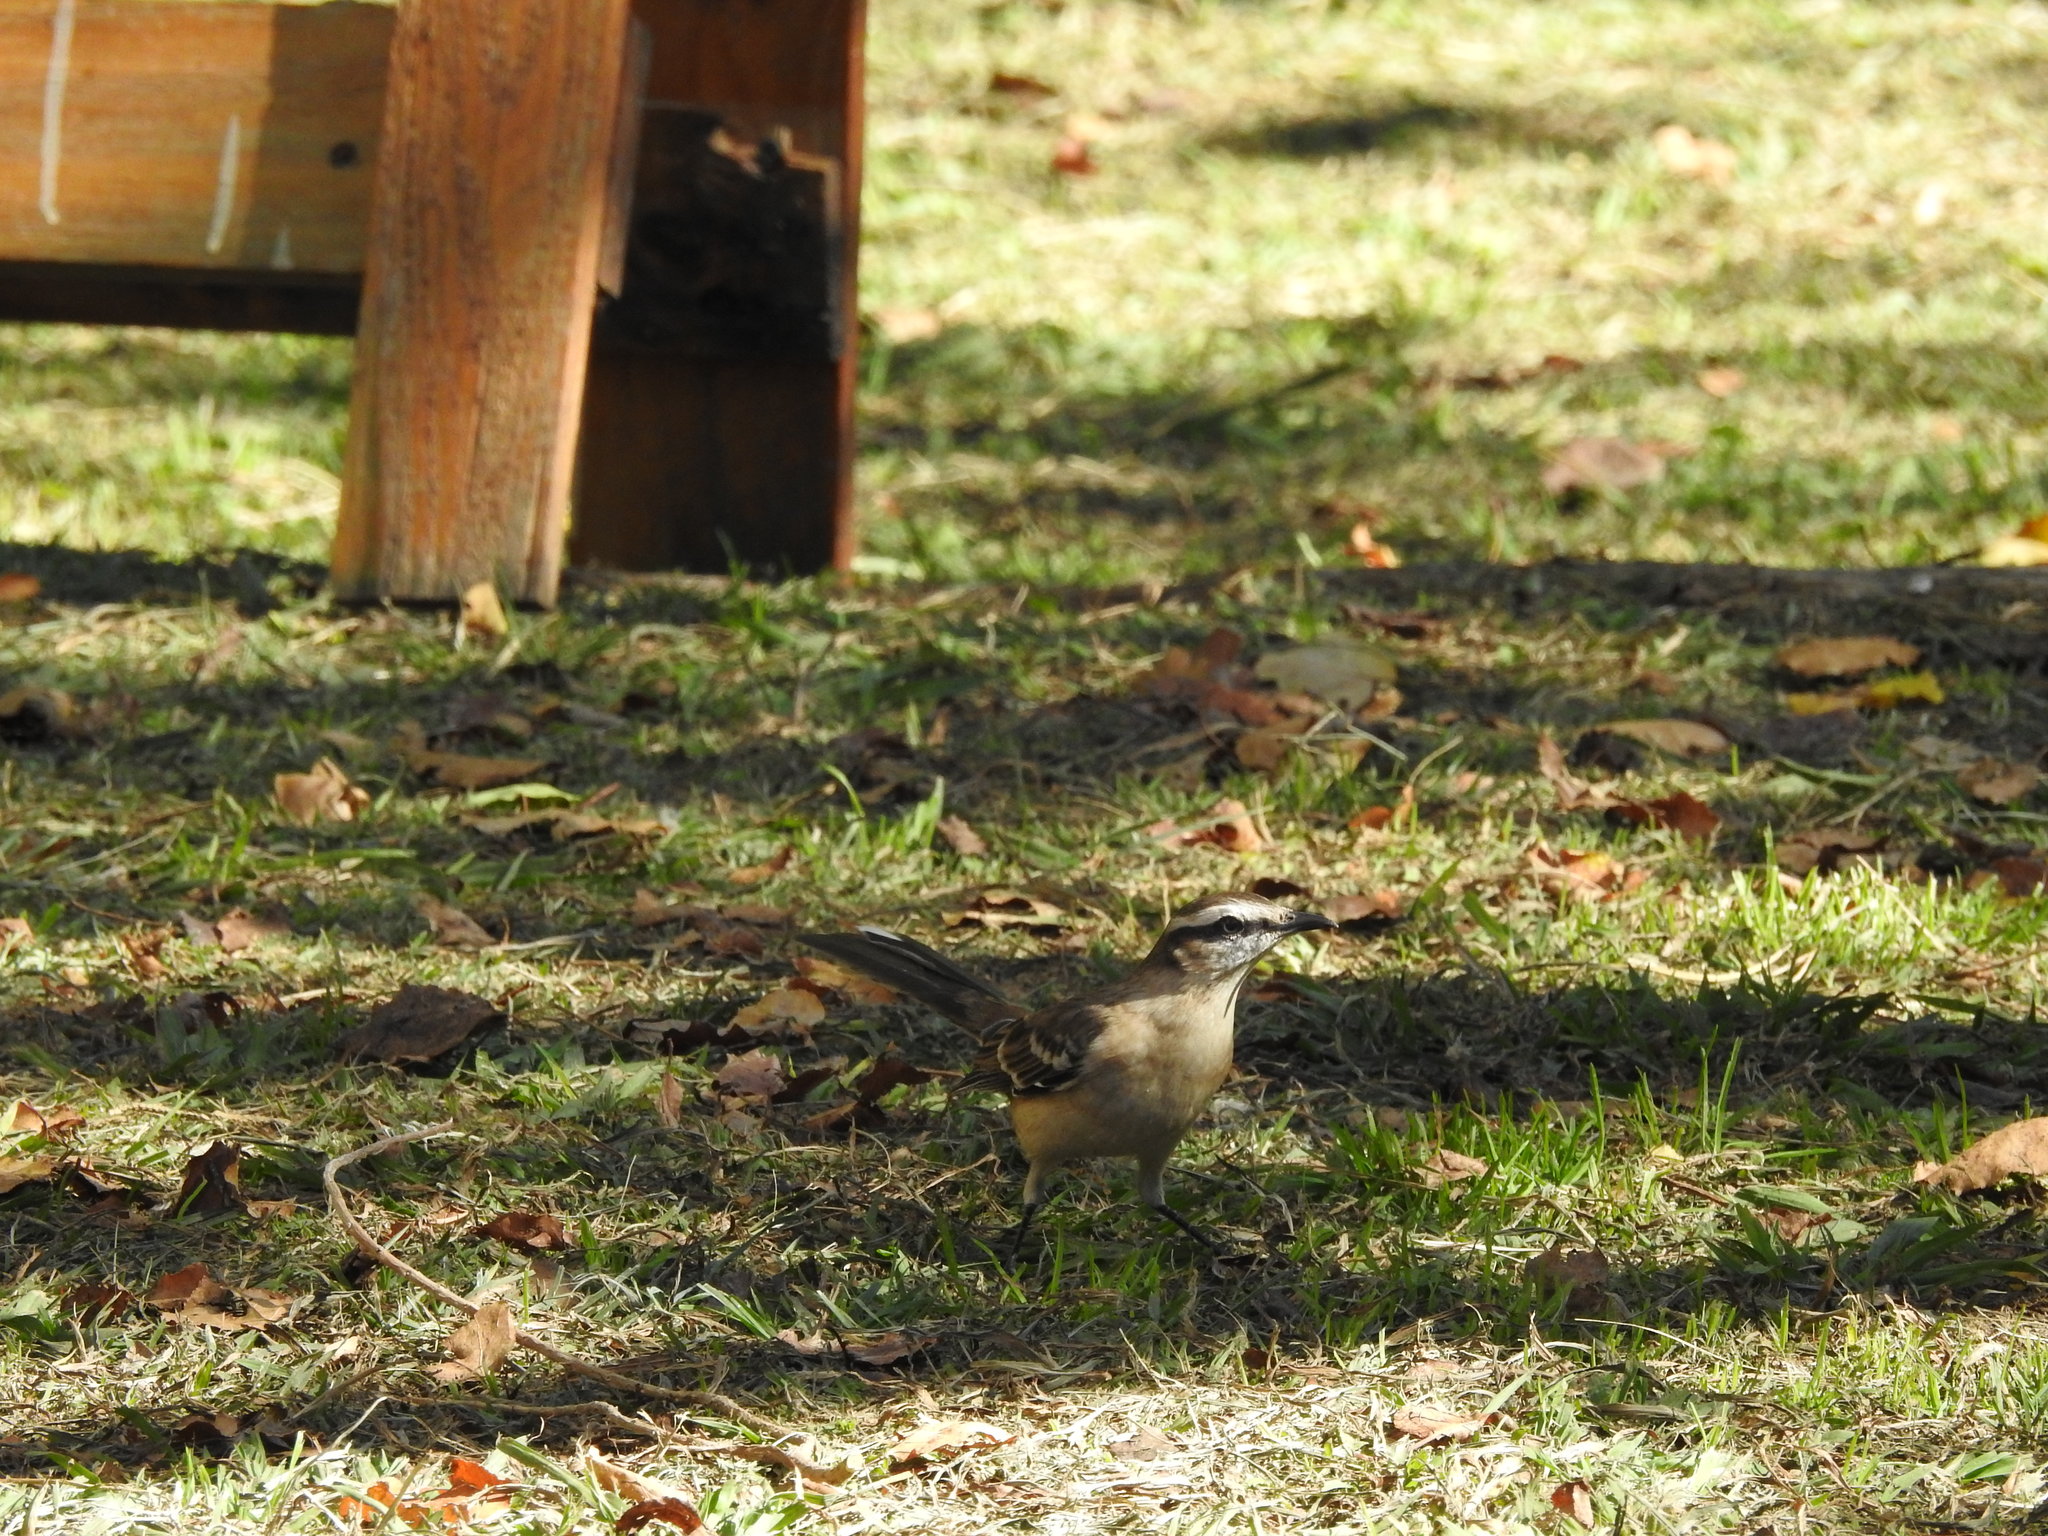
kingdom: Animalia
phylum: Chordata
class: Aves
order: Passeriformes
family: Mimidae
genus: Mimus
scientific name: Mimus saturninus
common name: Chalk-browed mockingbird
